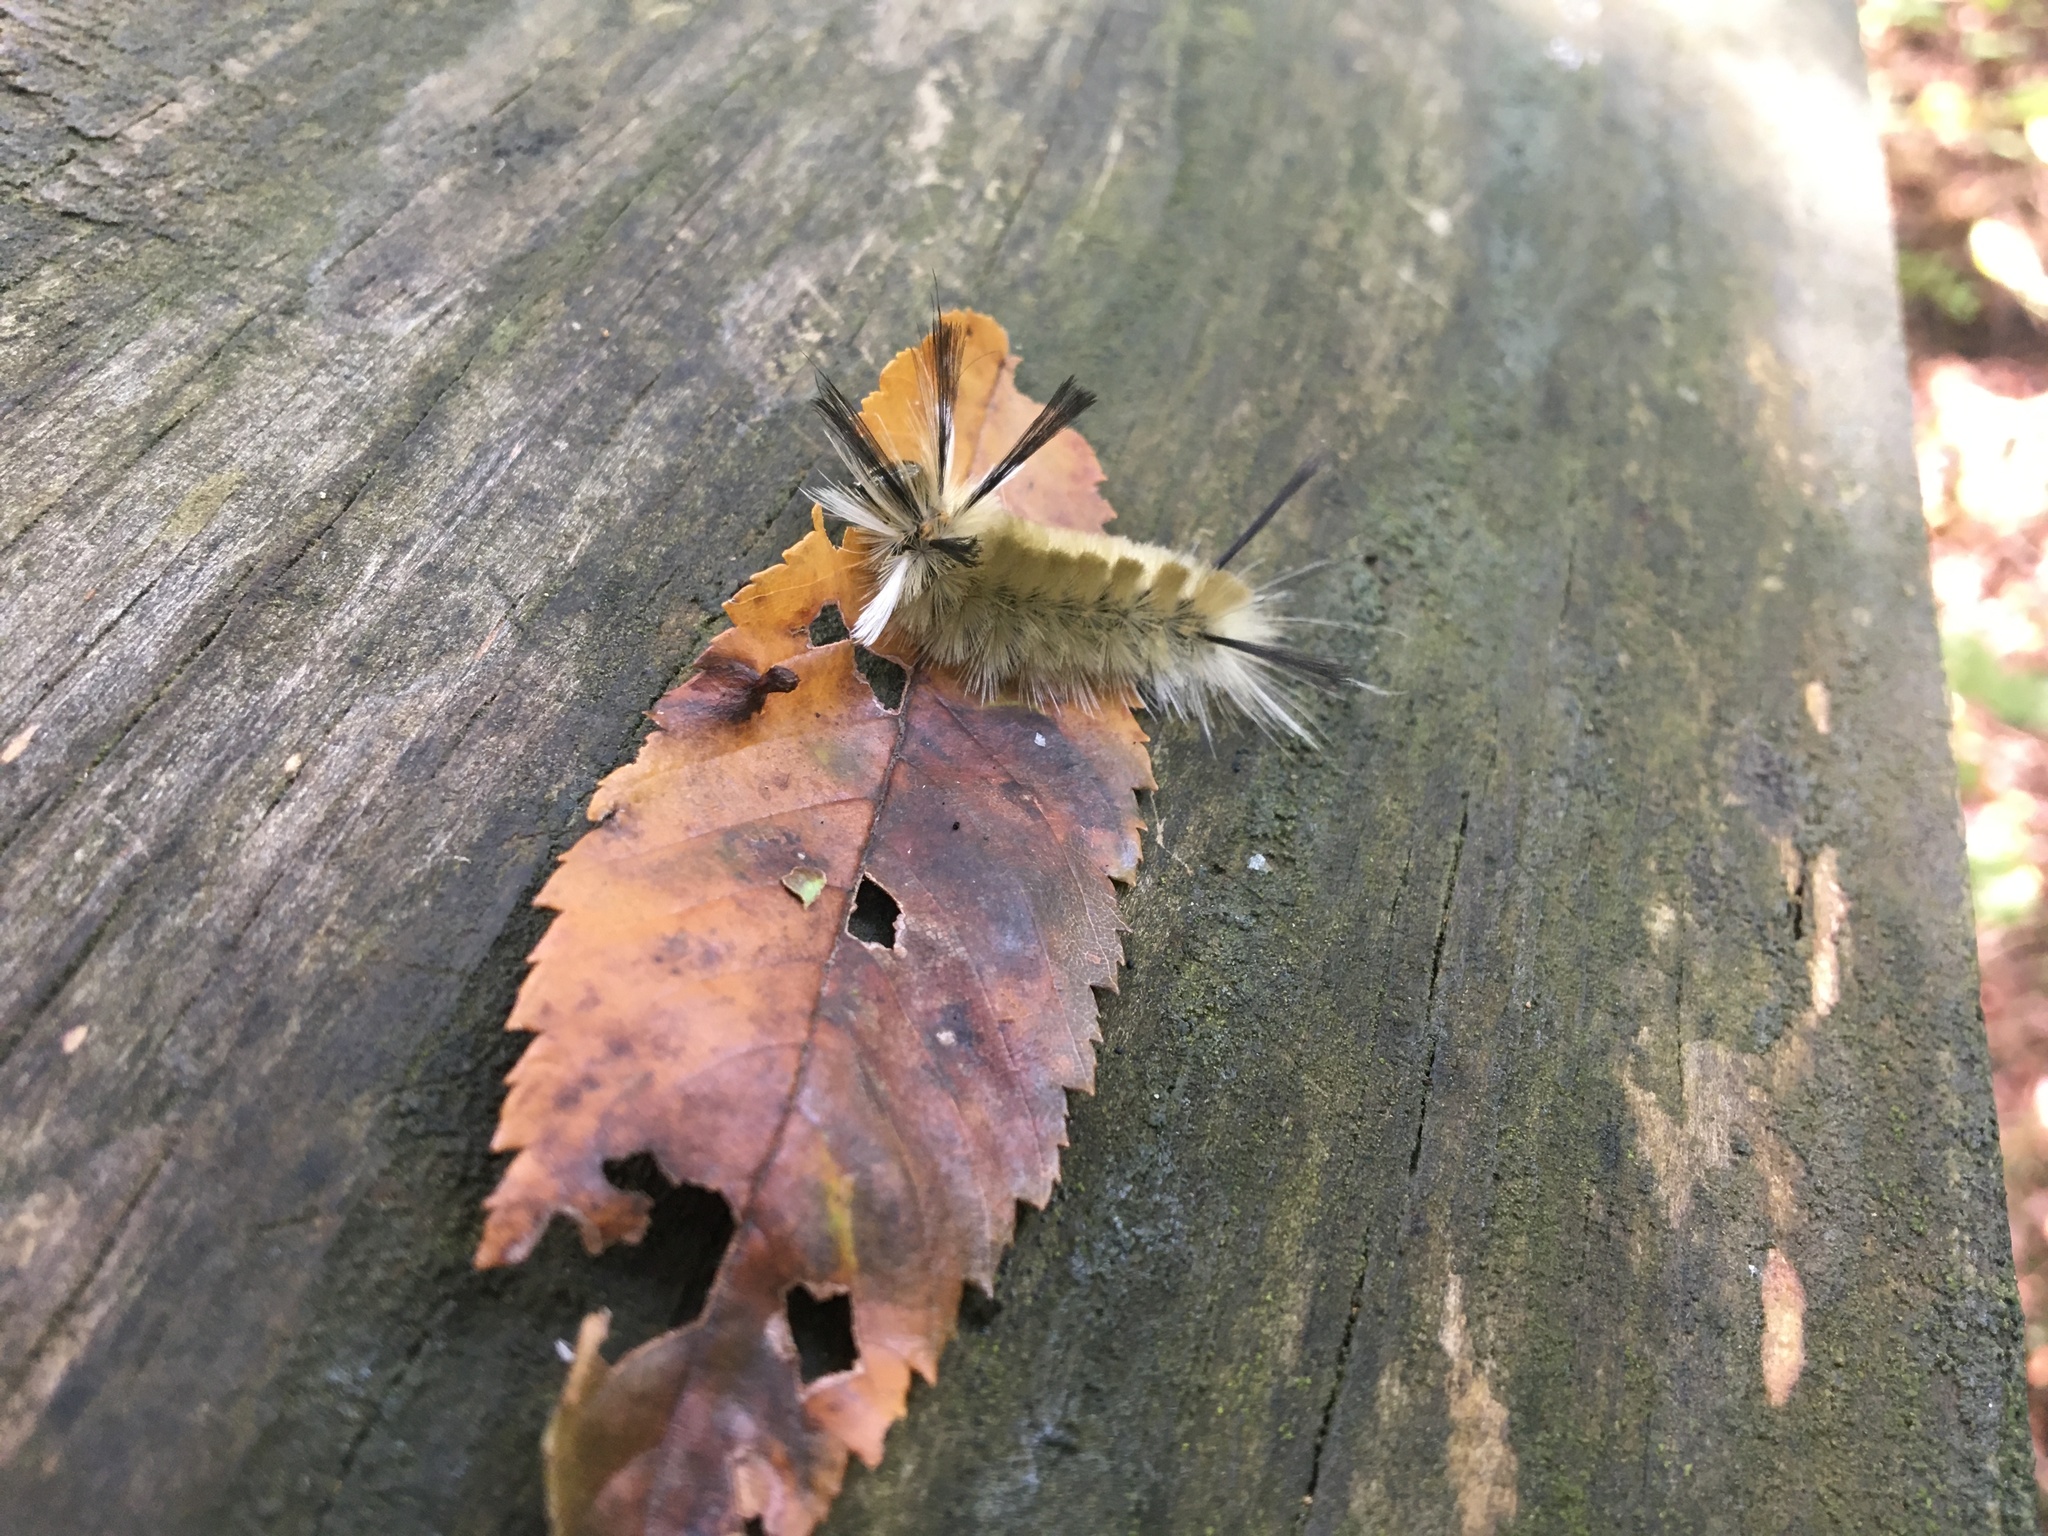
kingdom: Animalia
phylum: Arthropoda
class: Insecta
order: Lepidoptera
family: Erebidae
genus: Halysidota
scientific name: Halysidota tessellaris
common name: Banded tussock moth
